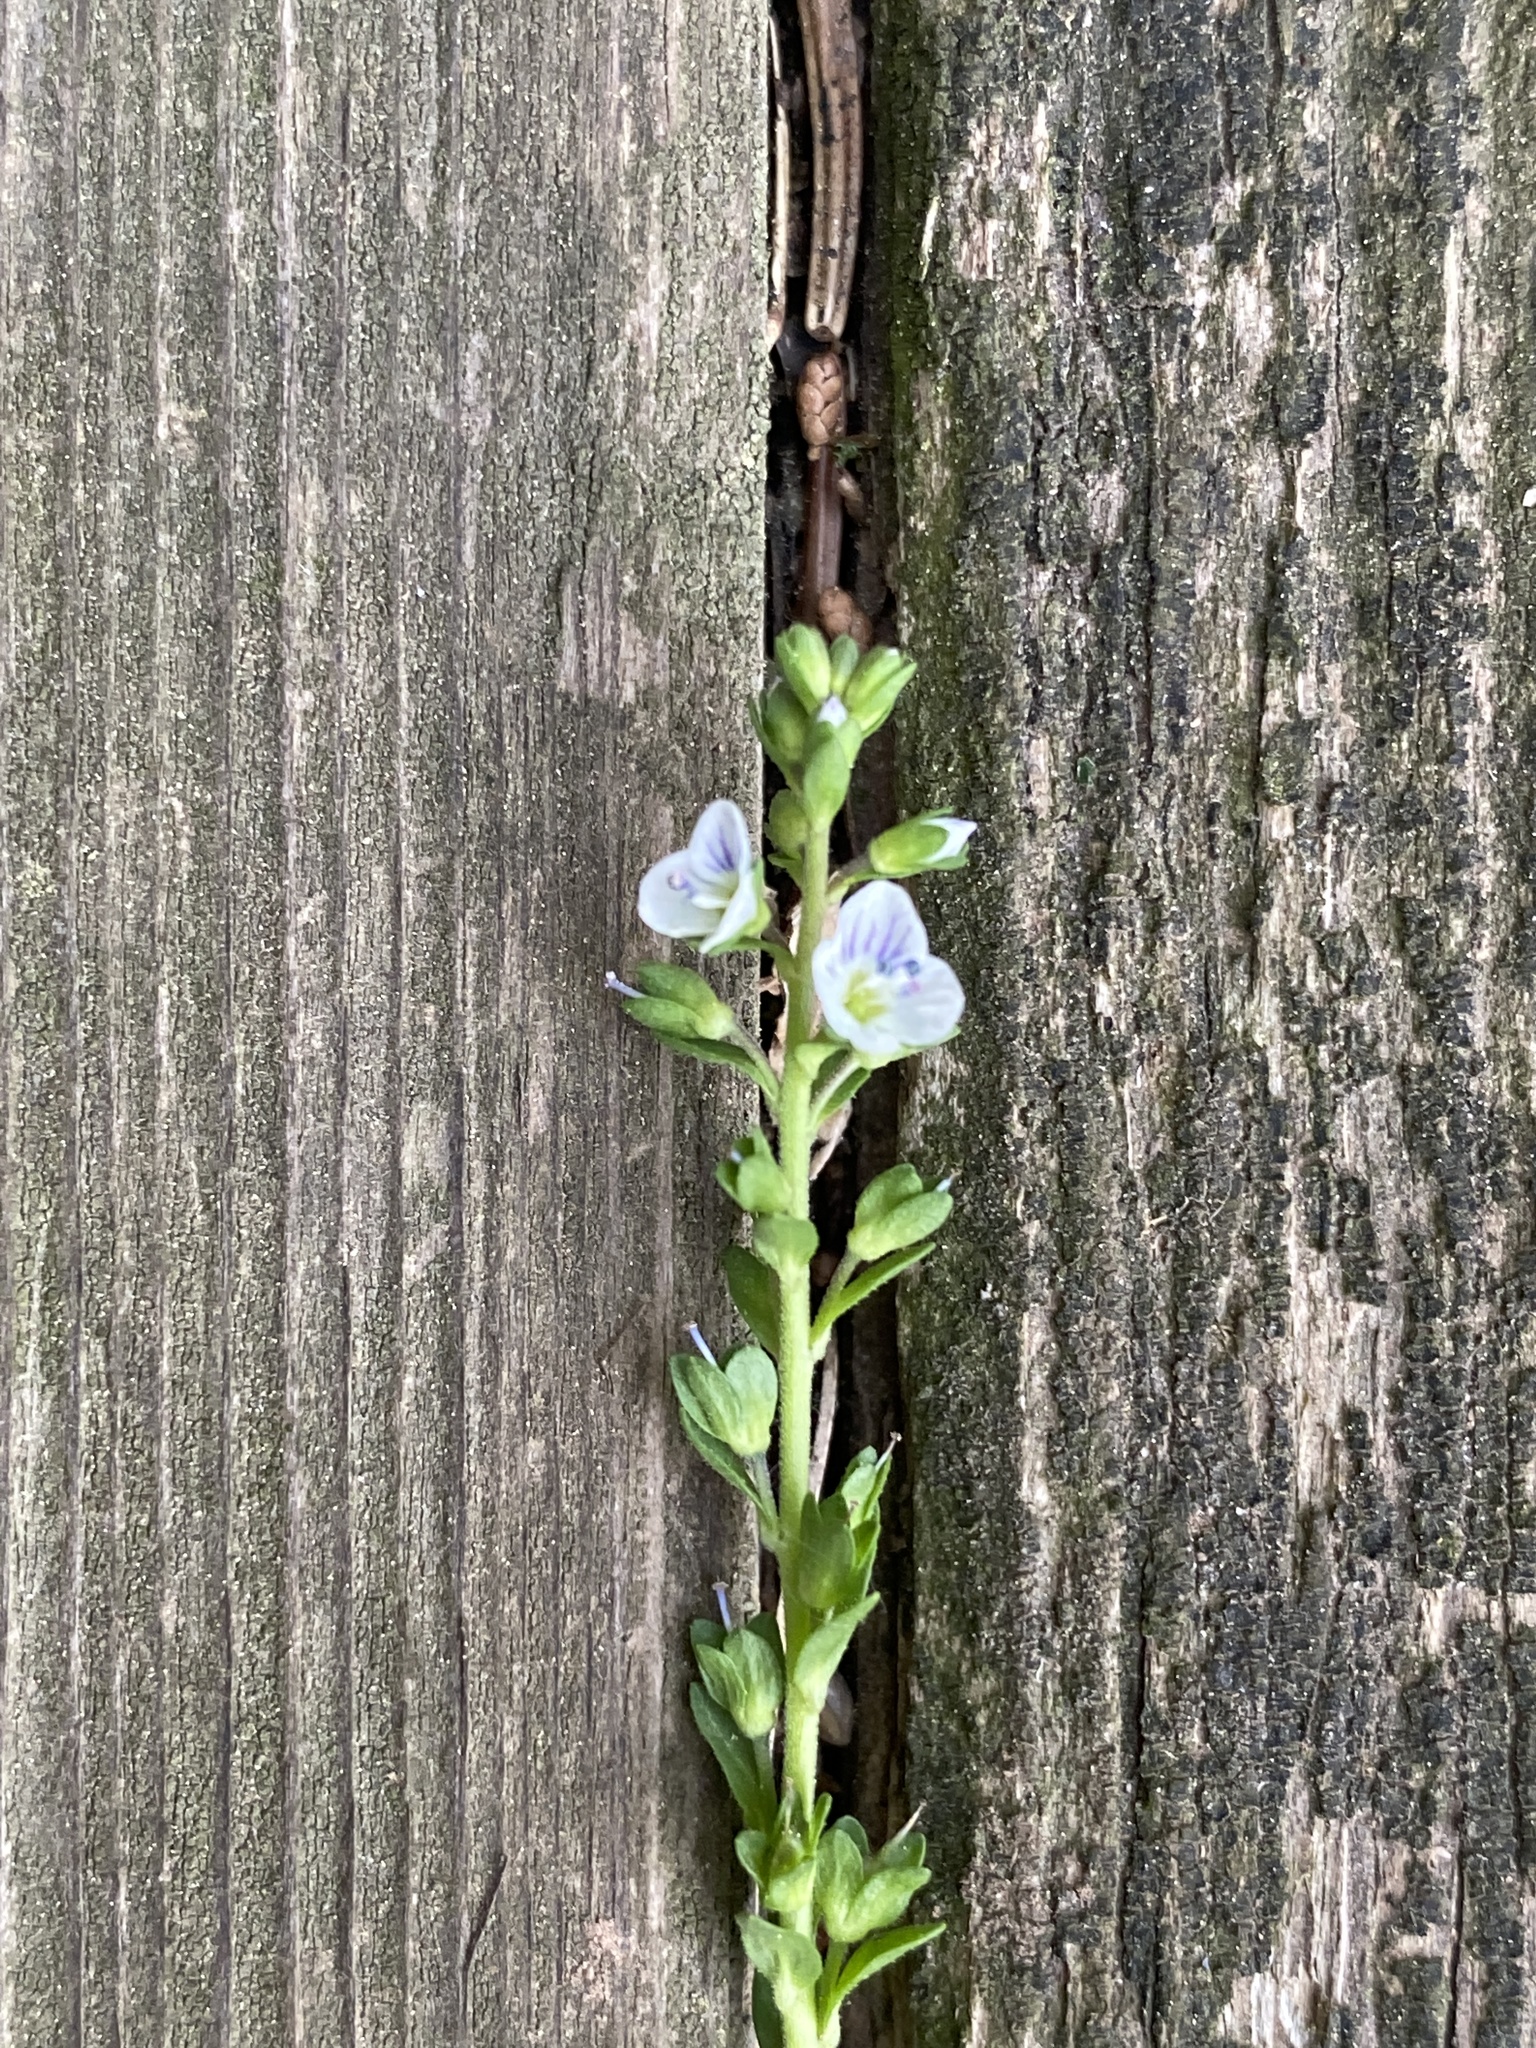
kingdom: Plantae
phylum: Tracheophyta
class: Magnoliopsida
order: Lamiales
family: Plantaginaceae
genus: Veronica
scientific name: Veronica serpyllifolia
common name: Thyme-leaved speedwell
